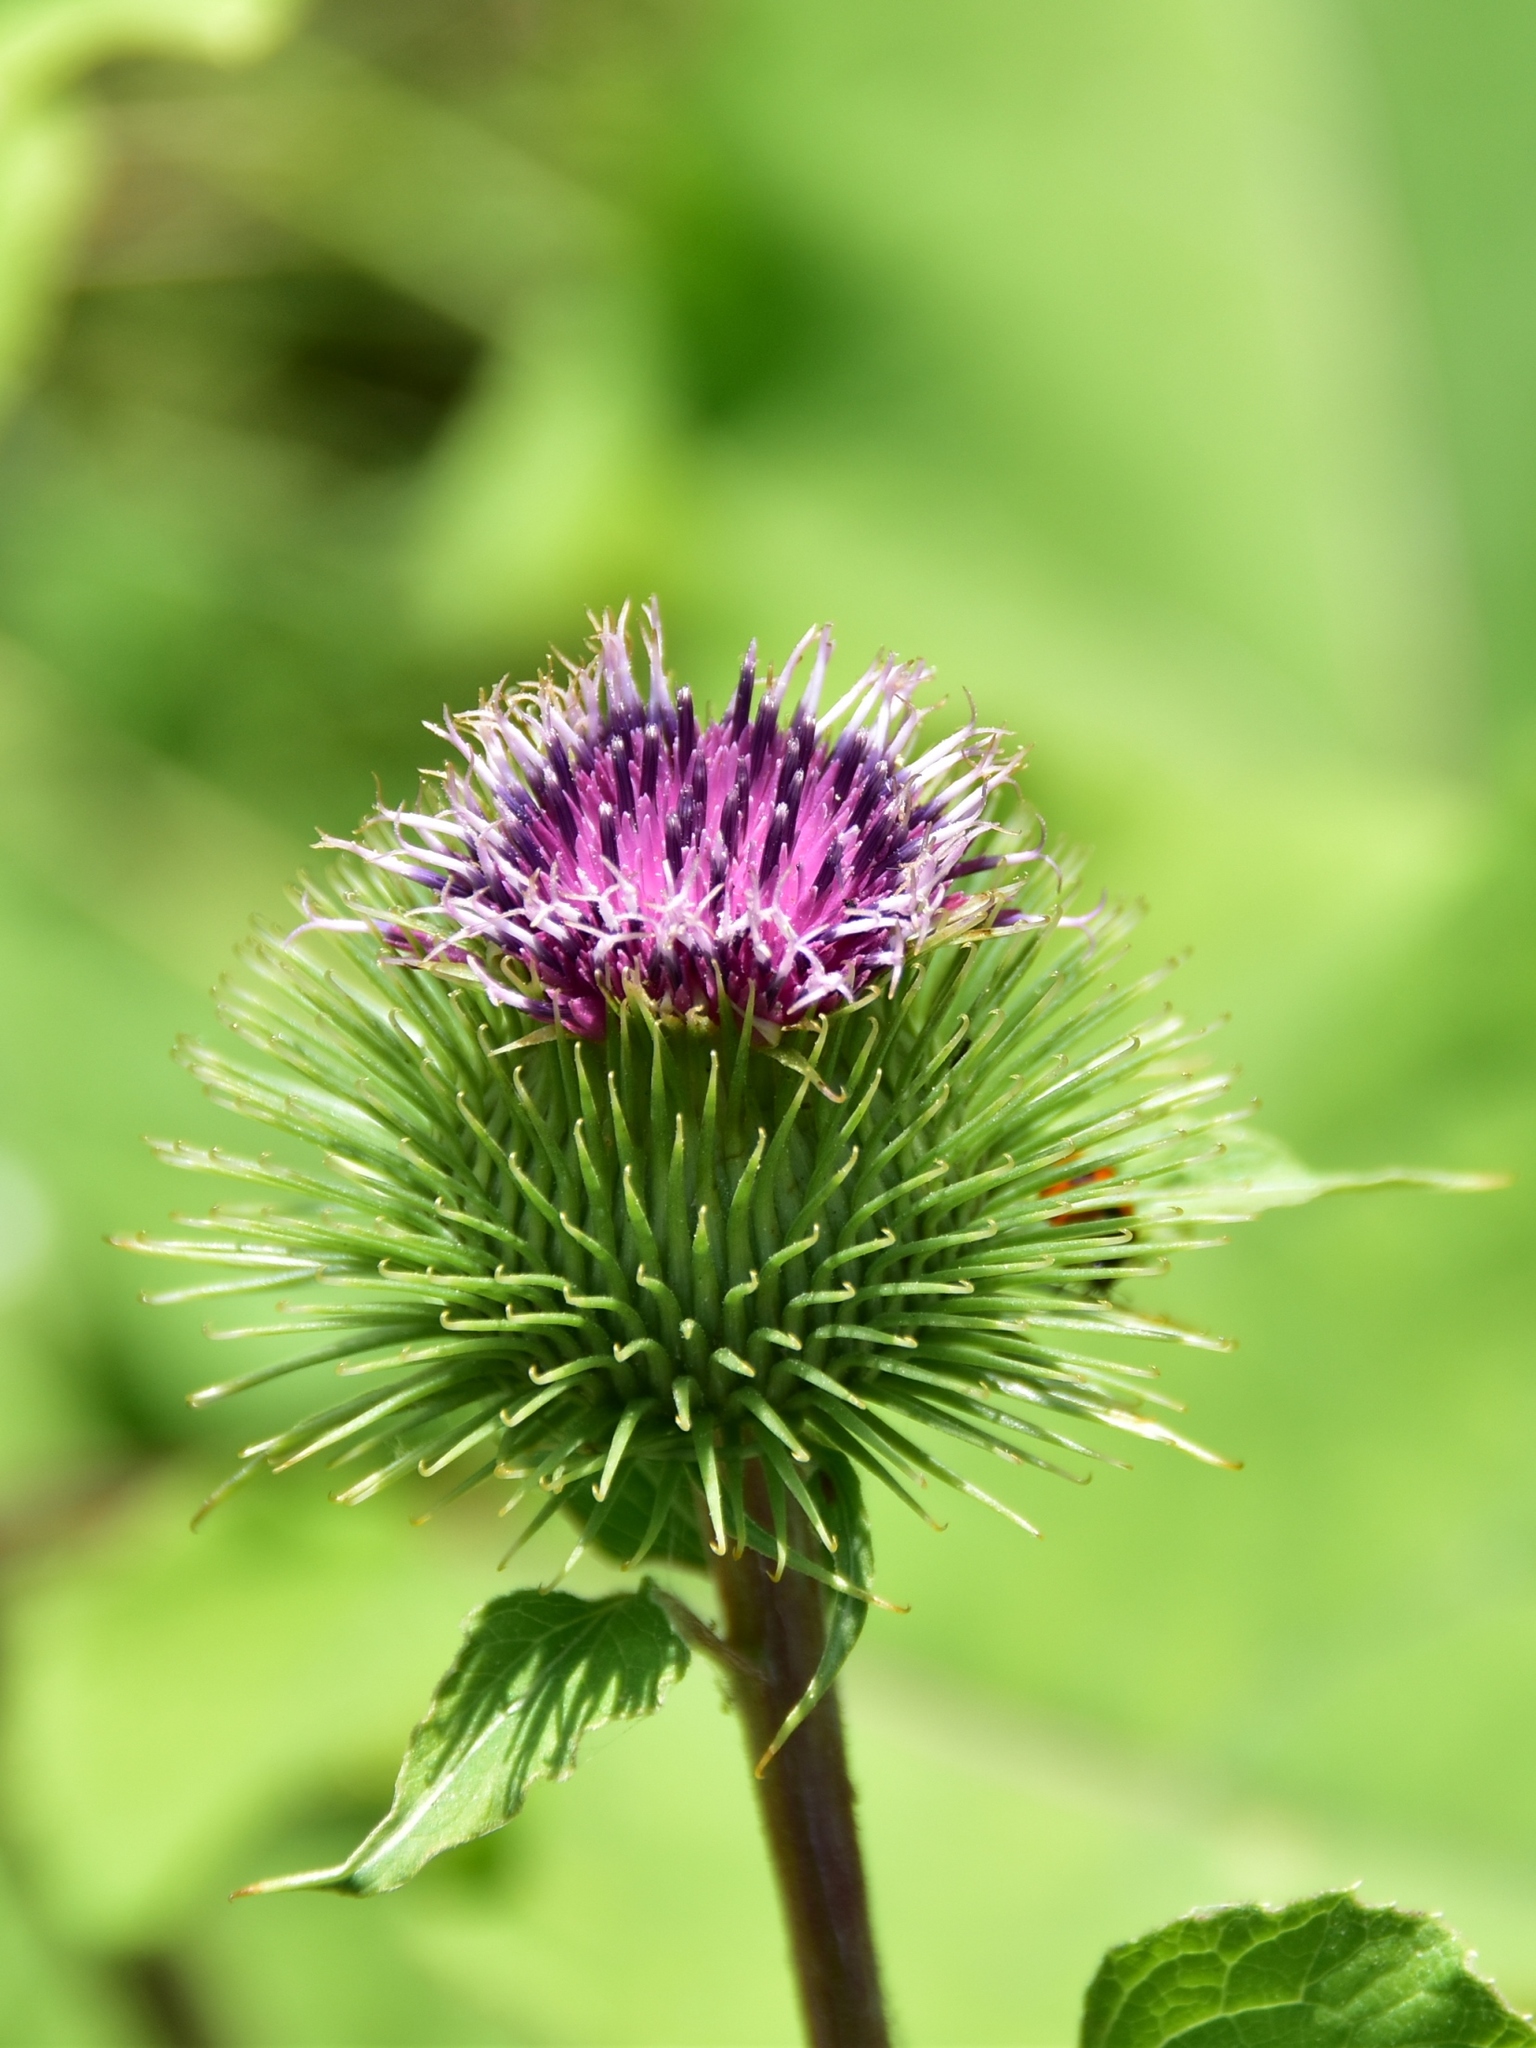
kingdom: Plantae
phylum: Tracheophyta
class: Magnoliopsida
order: Asterales
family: Asteraceae
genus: Arctium
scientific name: Arctium lappa
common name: Greater burdock
